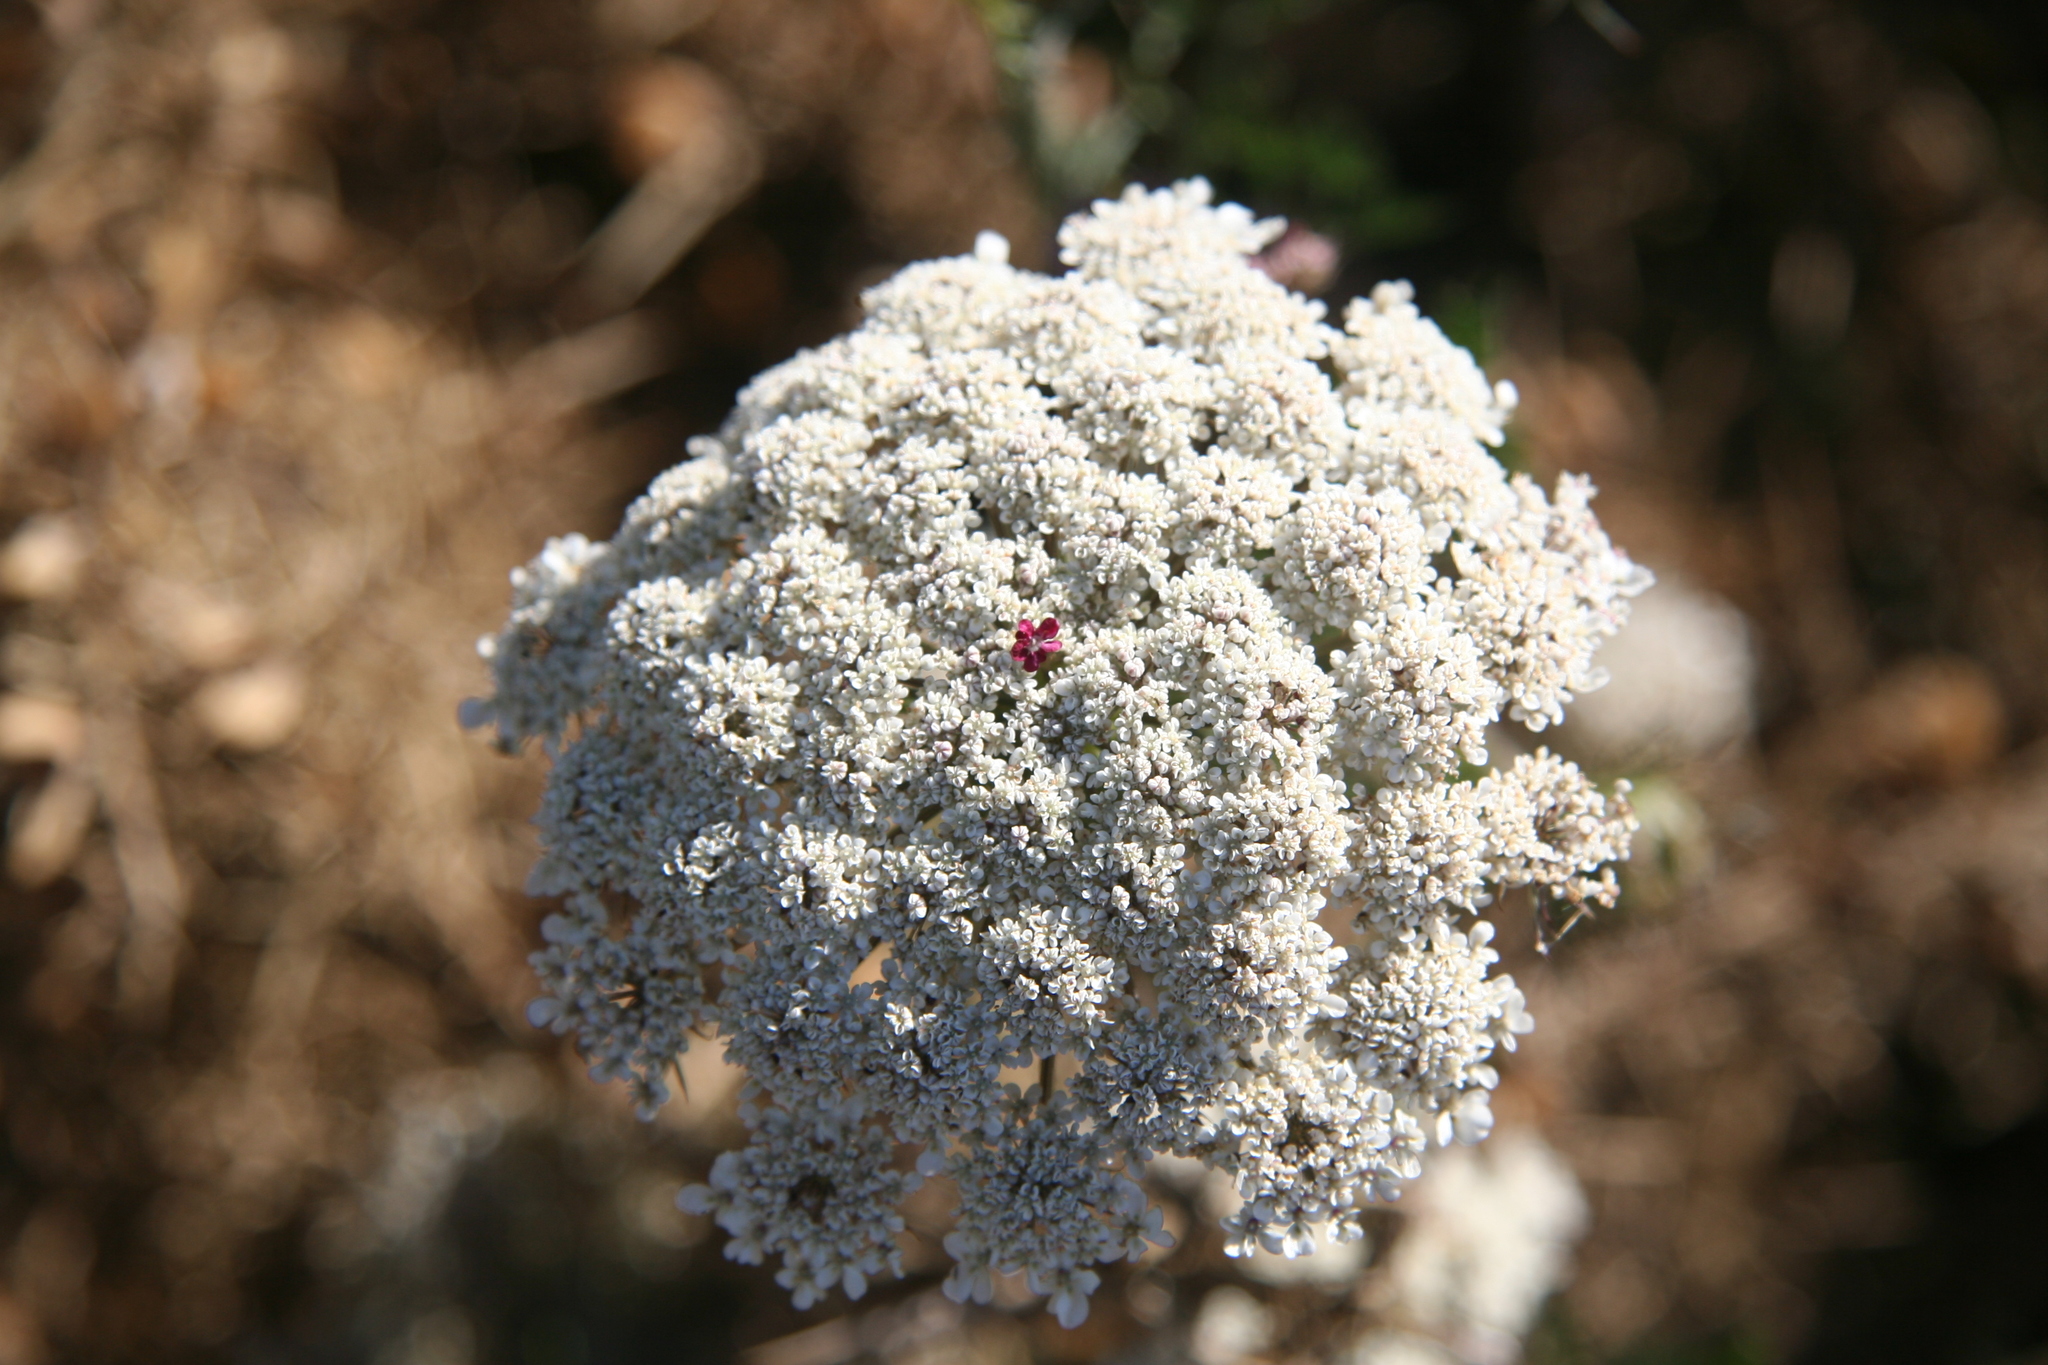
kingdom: Plantae
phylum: Tracheophyta
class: Magnoliopsida
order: Apiales
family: Apiaceae
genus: Daucus
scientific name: Daucus carota
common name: Wild carrot
